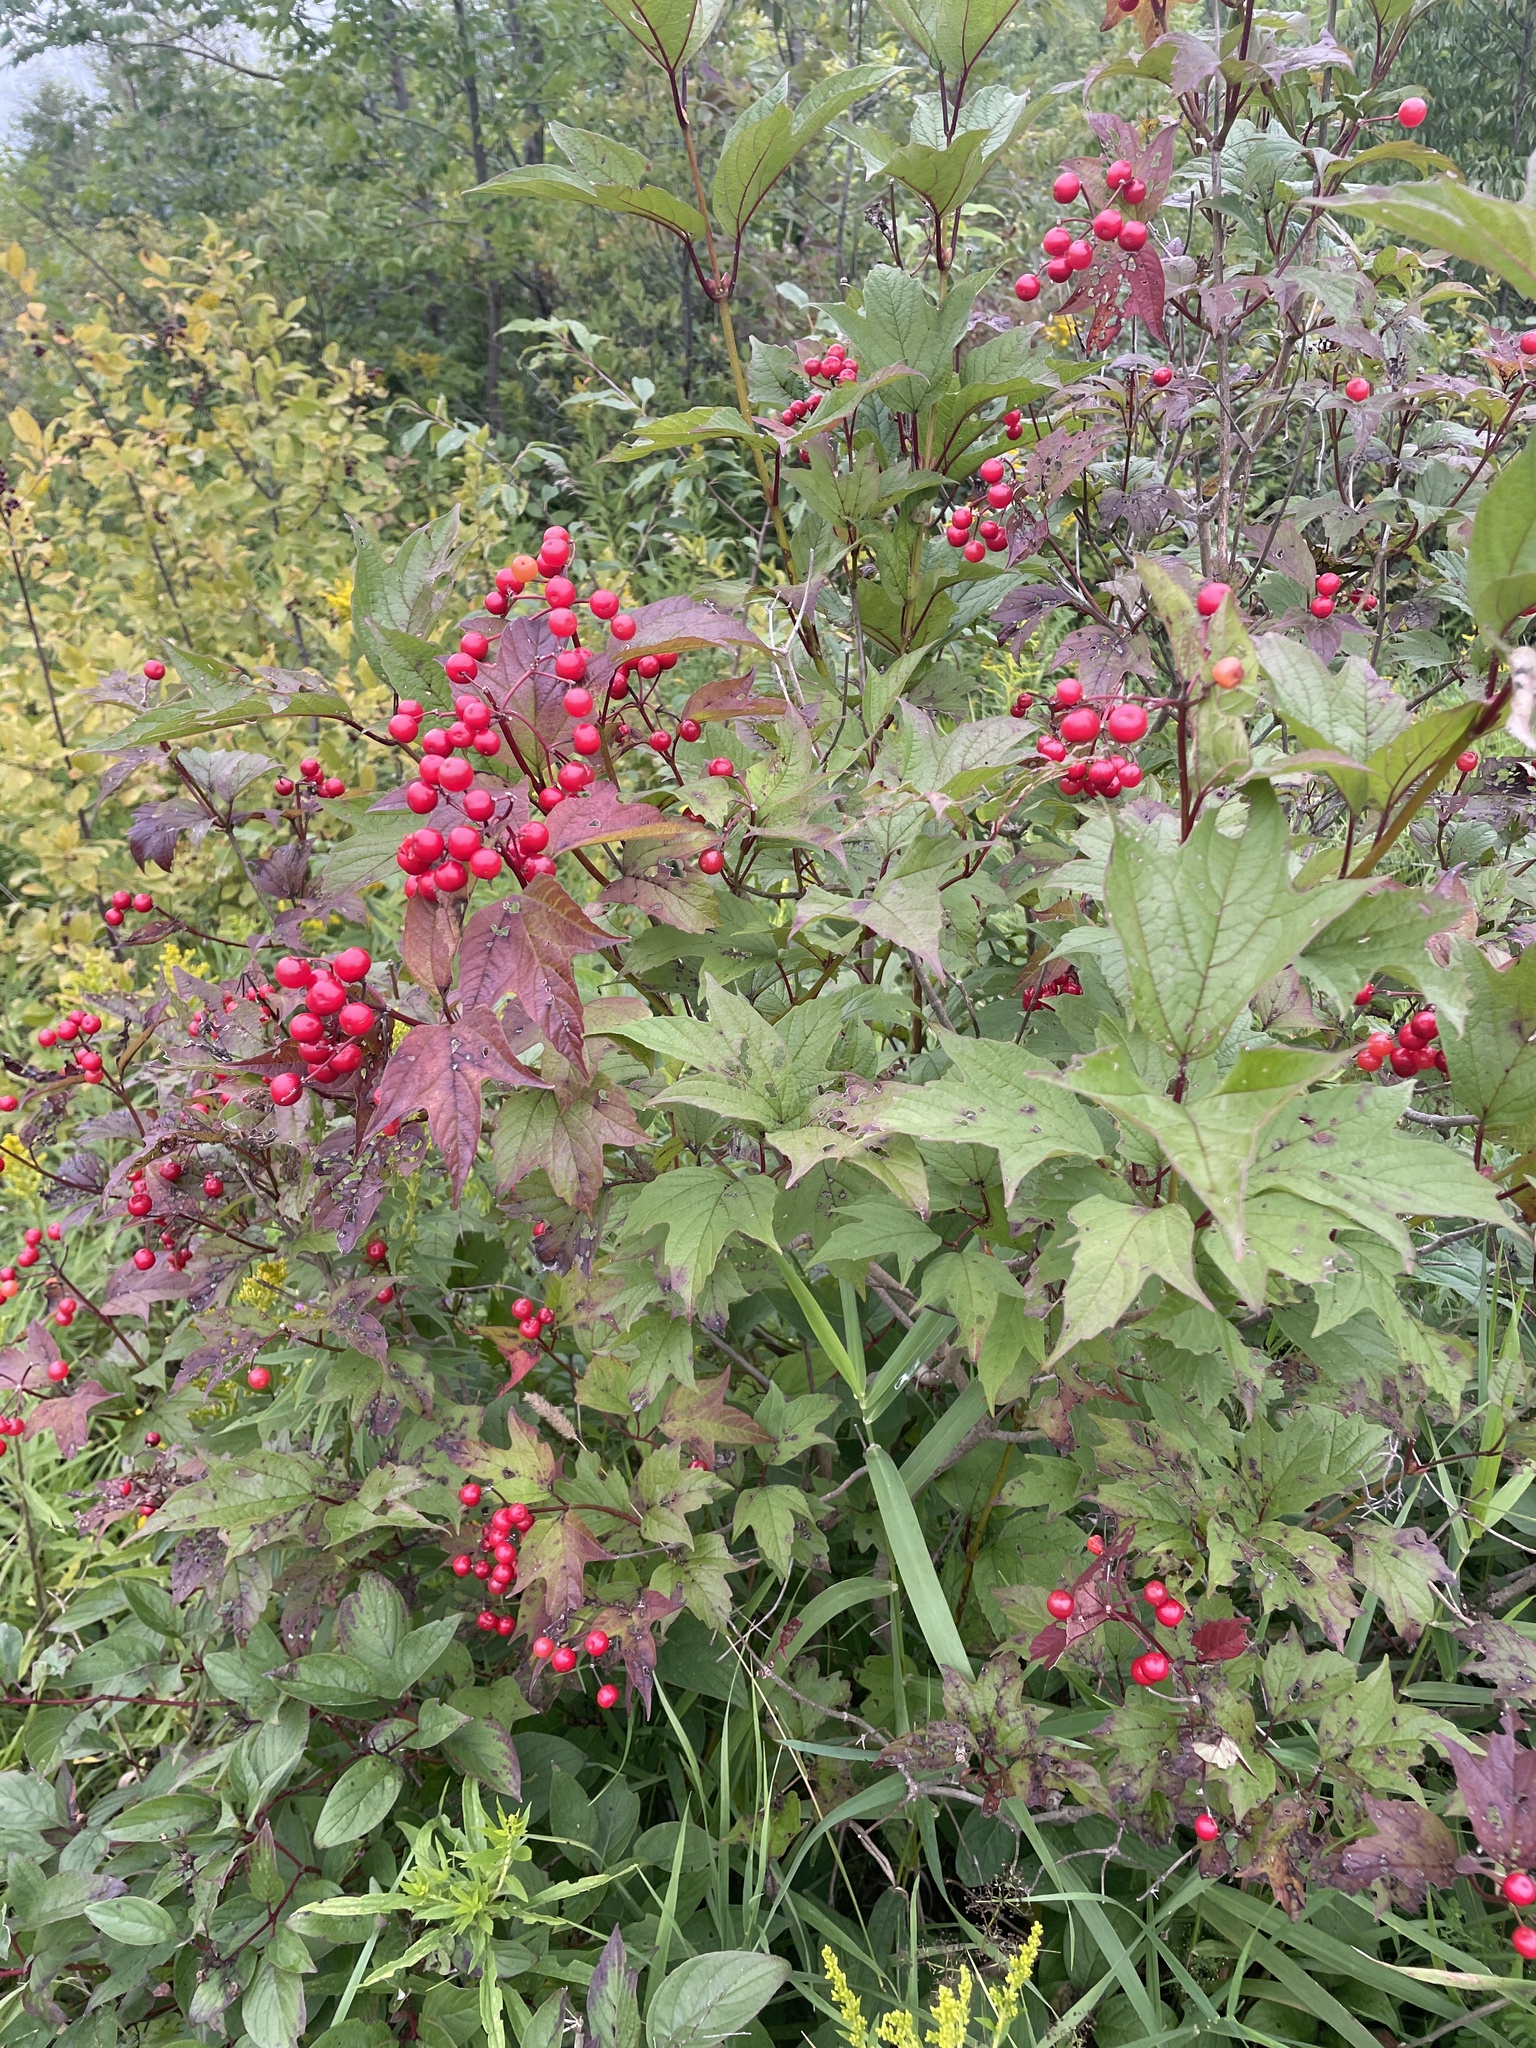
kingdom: Plantae
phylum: Tracheophyta
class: Magnoliopsida
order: Dipsacales
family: Viburnaceae
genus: Viburnum
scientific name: Viburnum trilobum
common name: American cranberrybush
